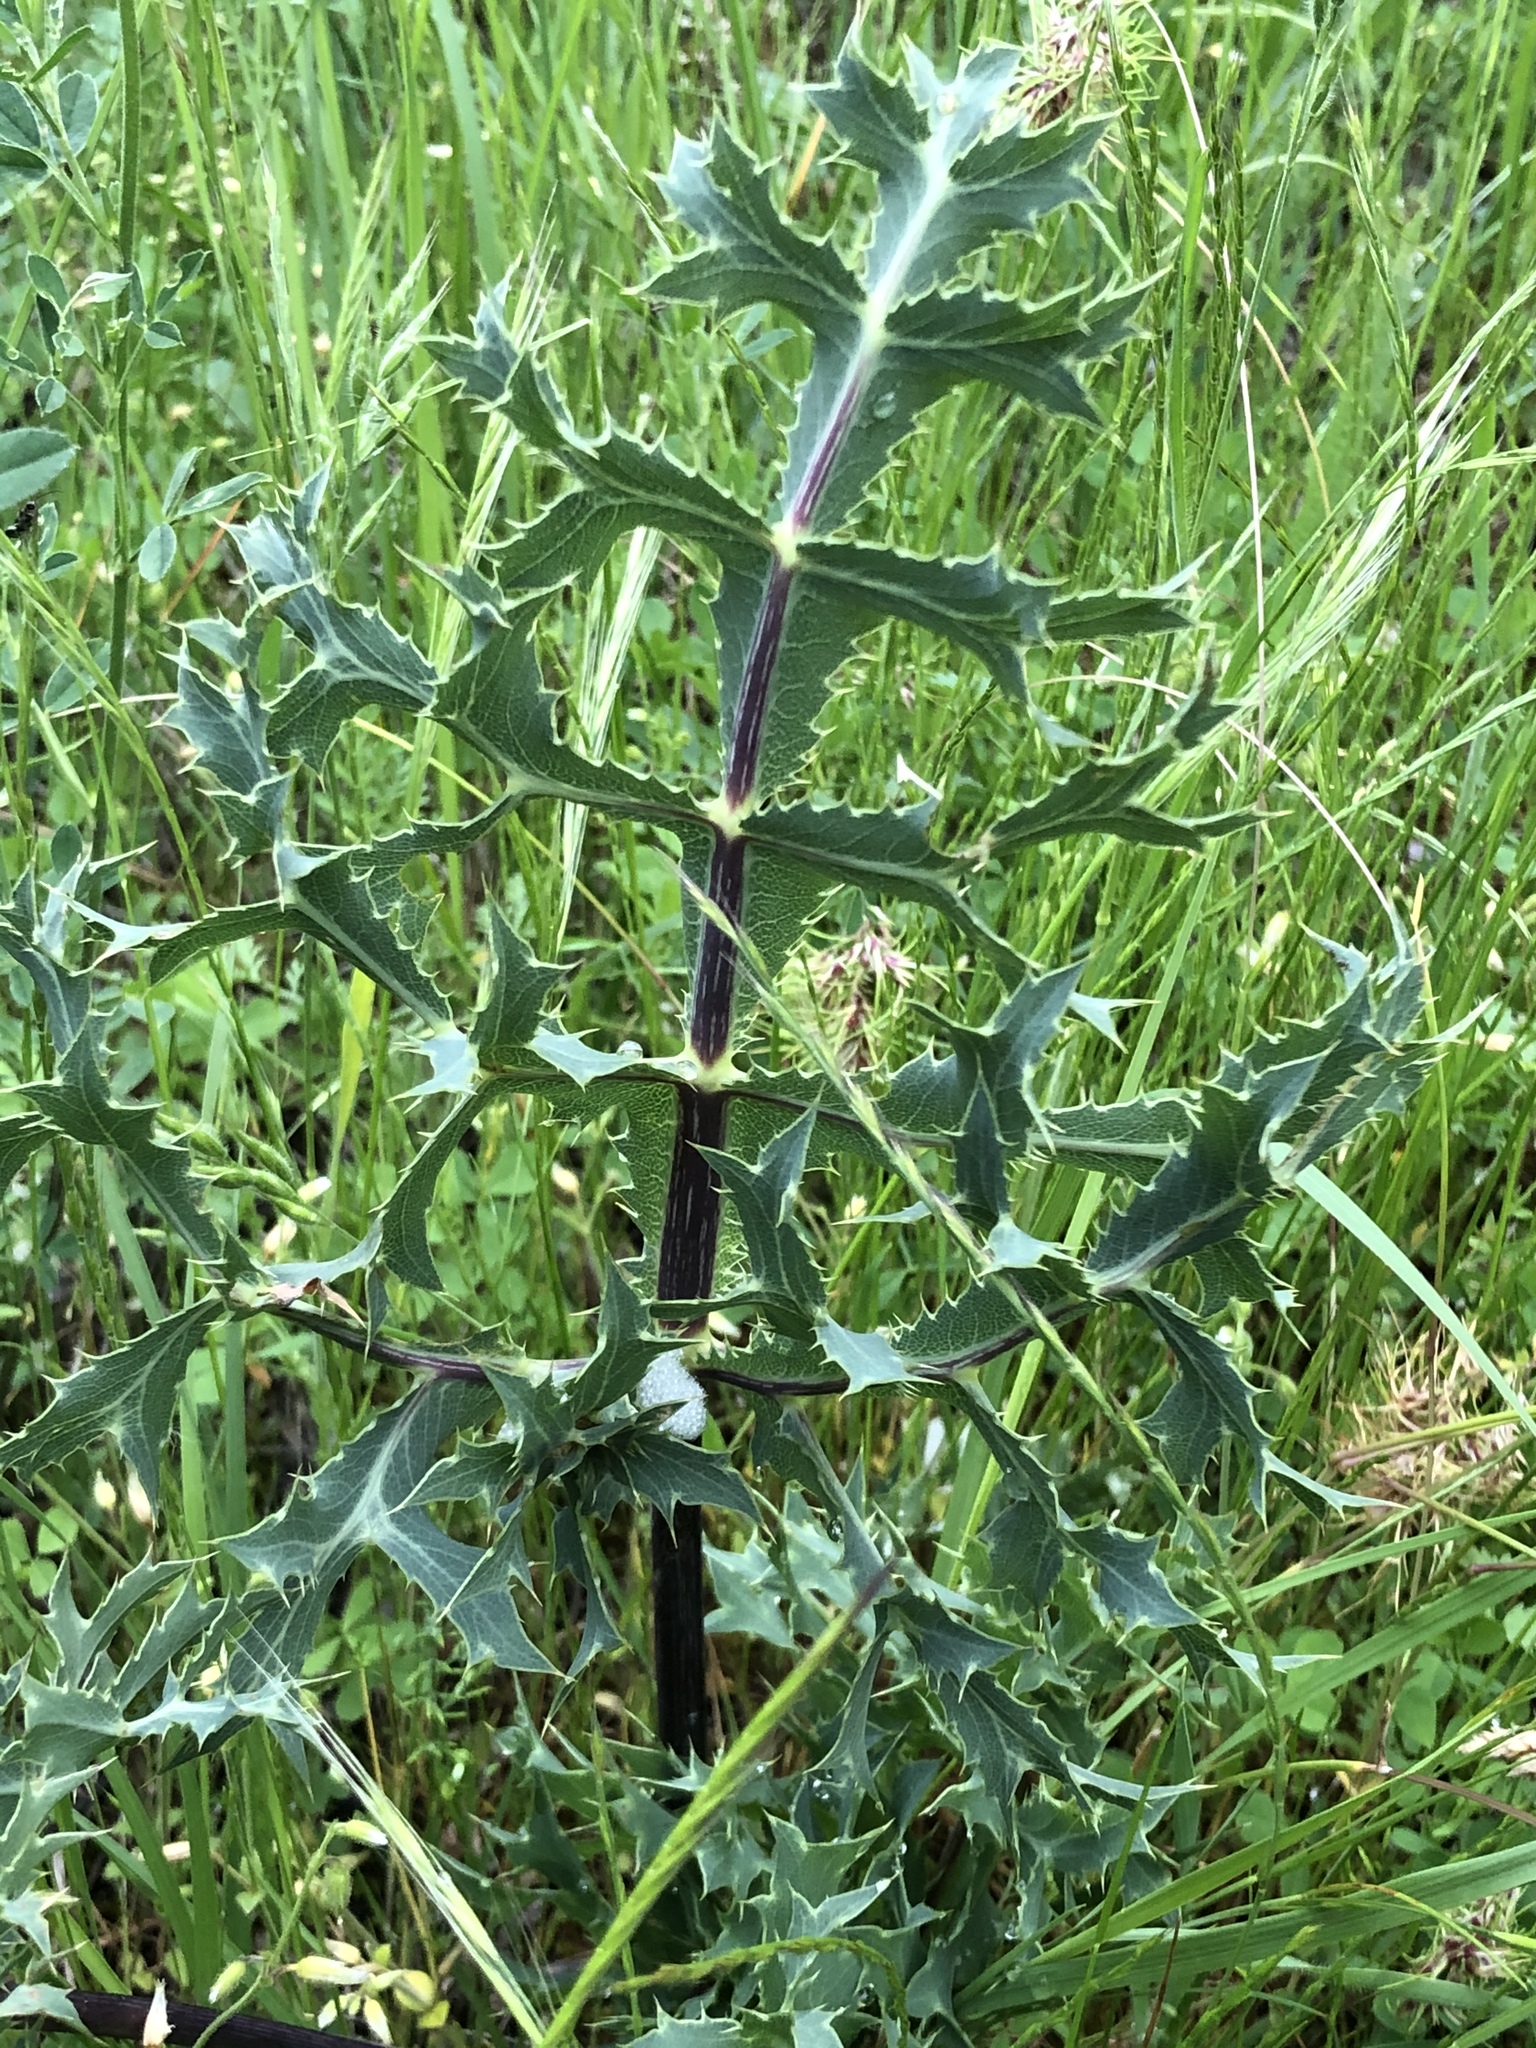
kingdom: Plantae
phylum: Tracheophyta
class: Magnoliopsida
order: Apiales
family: Apiaceae
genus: Eryngium
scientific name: Eryngium campestre
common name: Field eryngo
